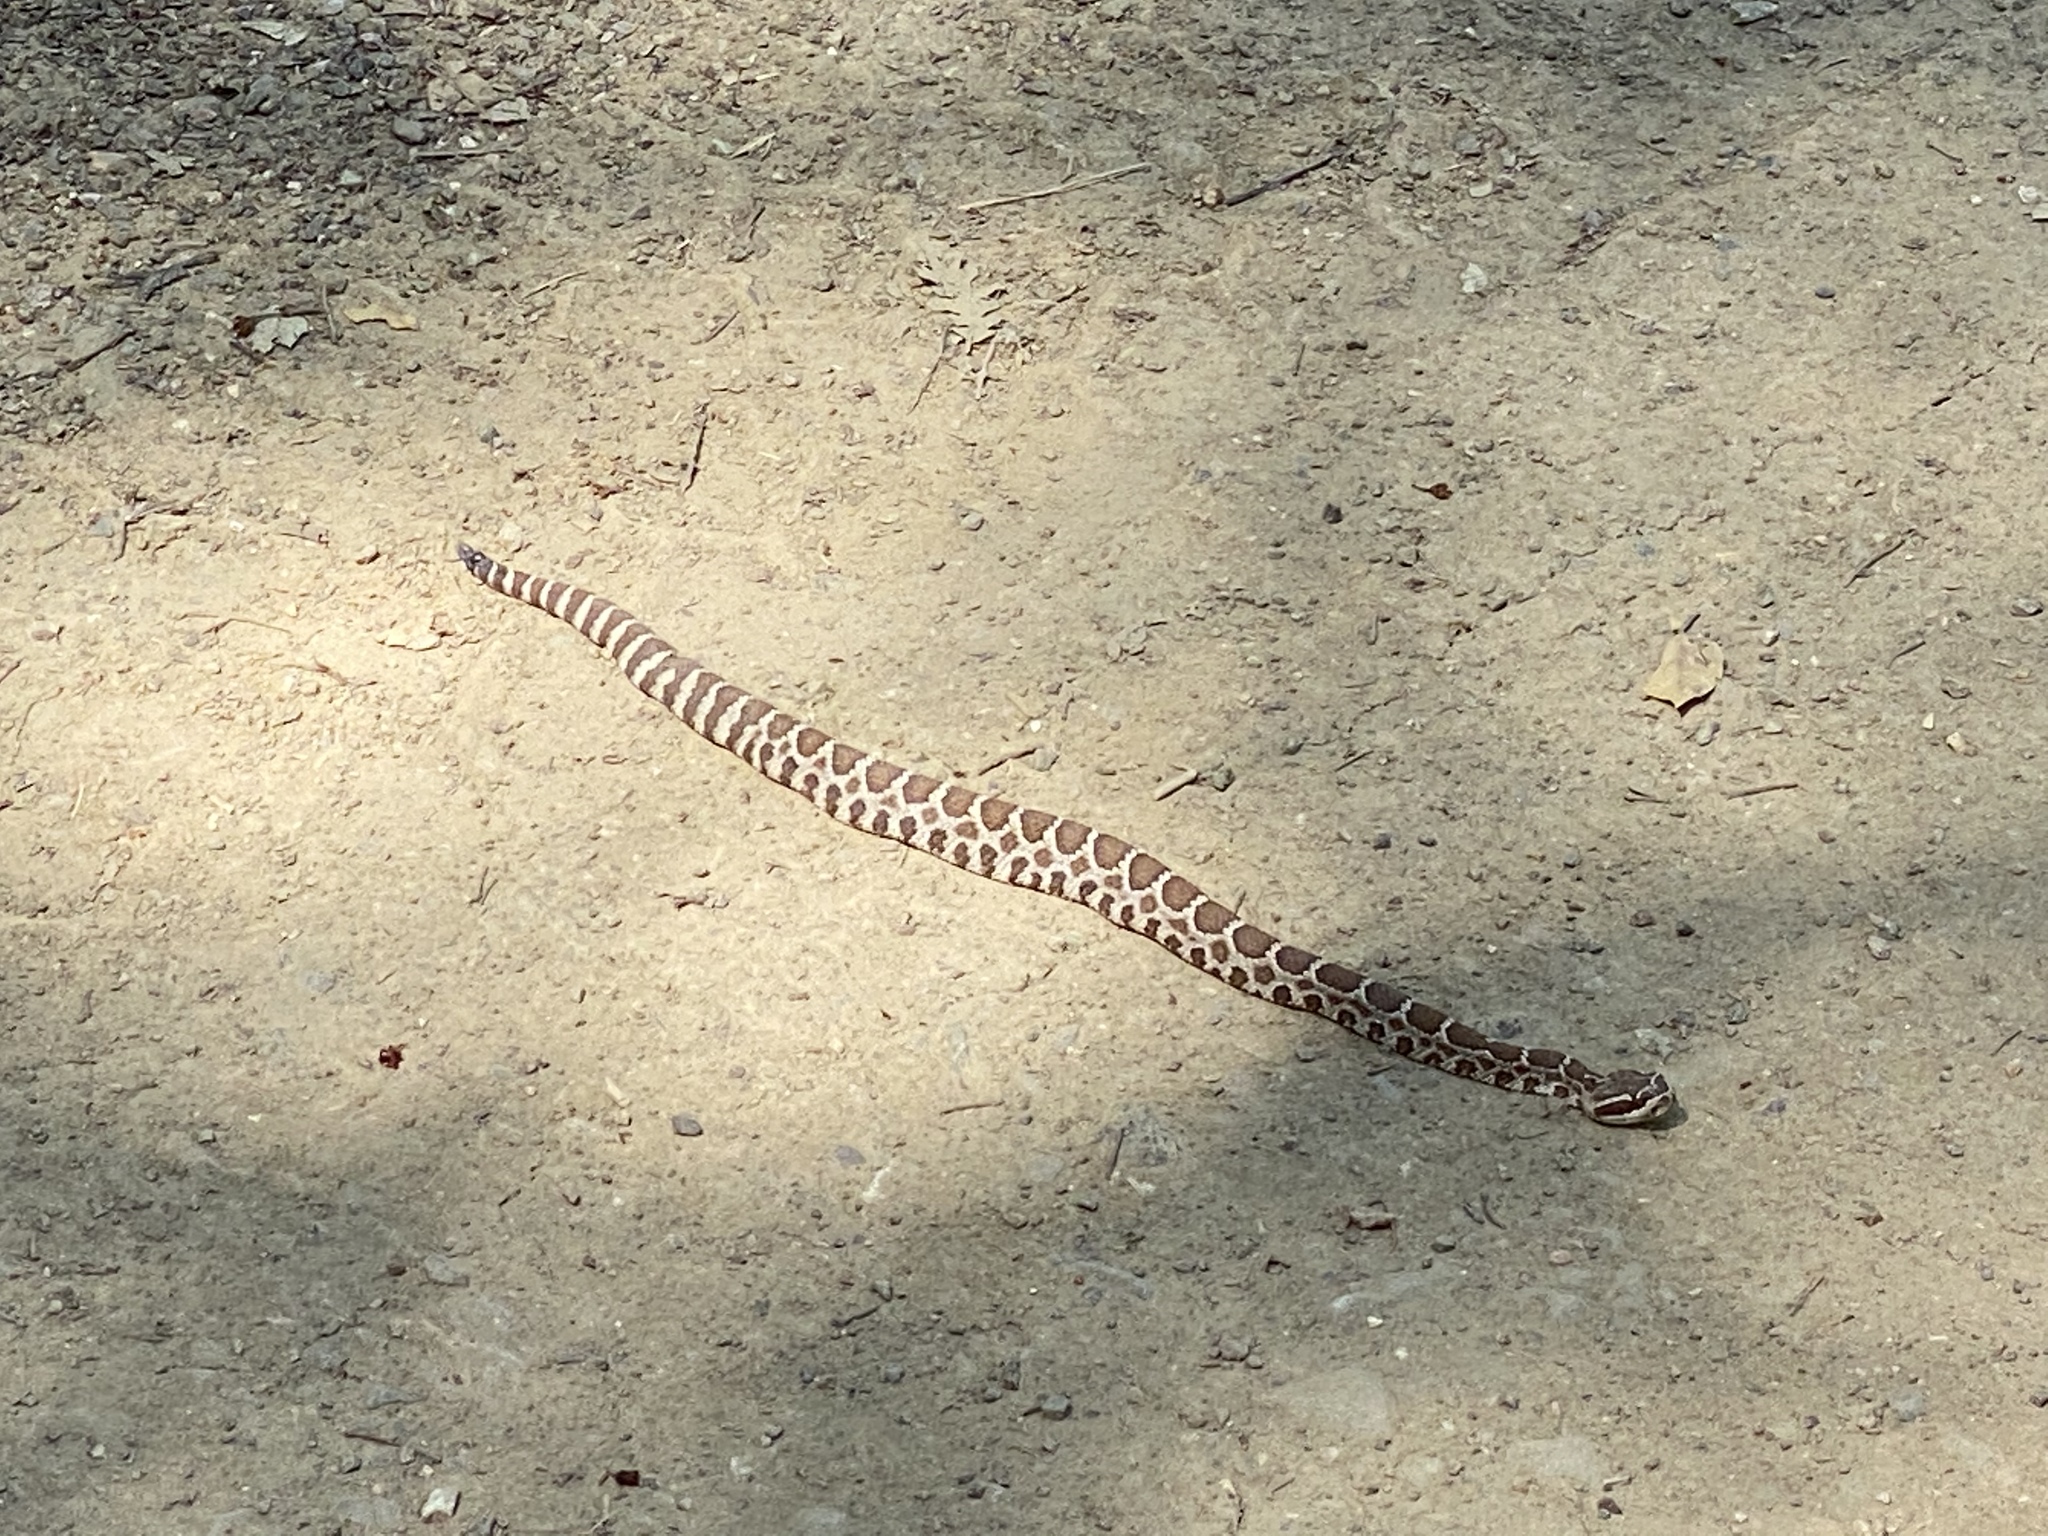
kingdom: Animalia
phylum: Chordata
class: Squamata
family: Viperidae
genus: Crotalus
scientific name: Crotalus oreganus
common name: Abyssus
